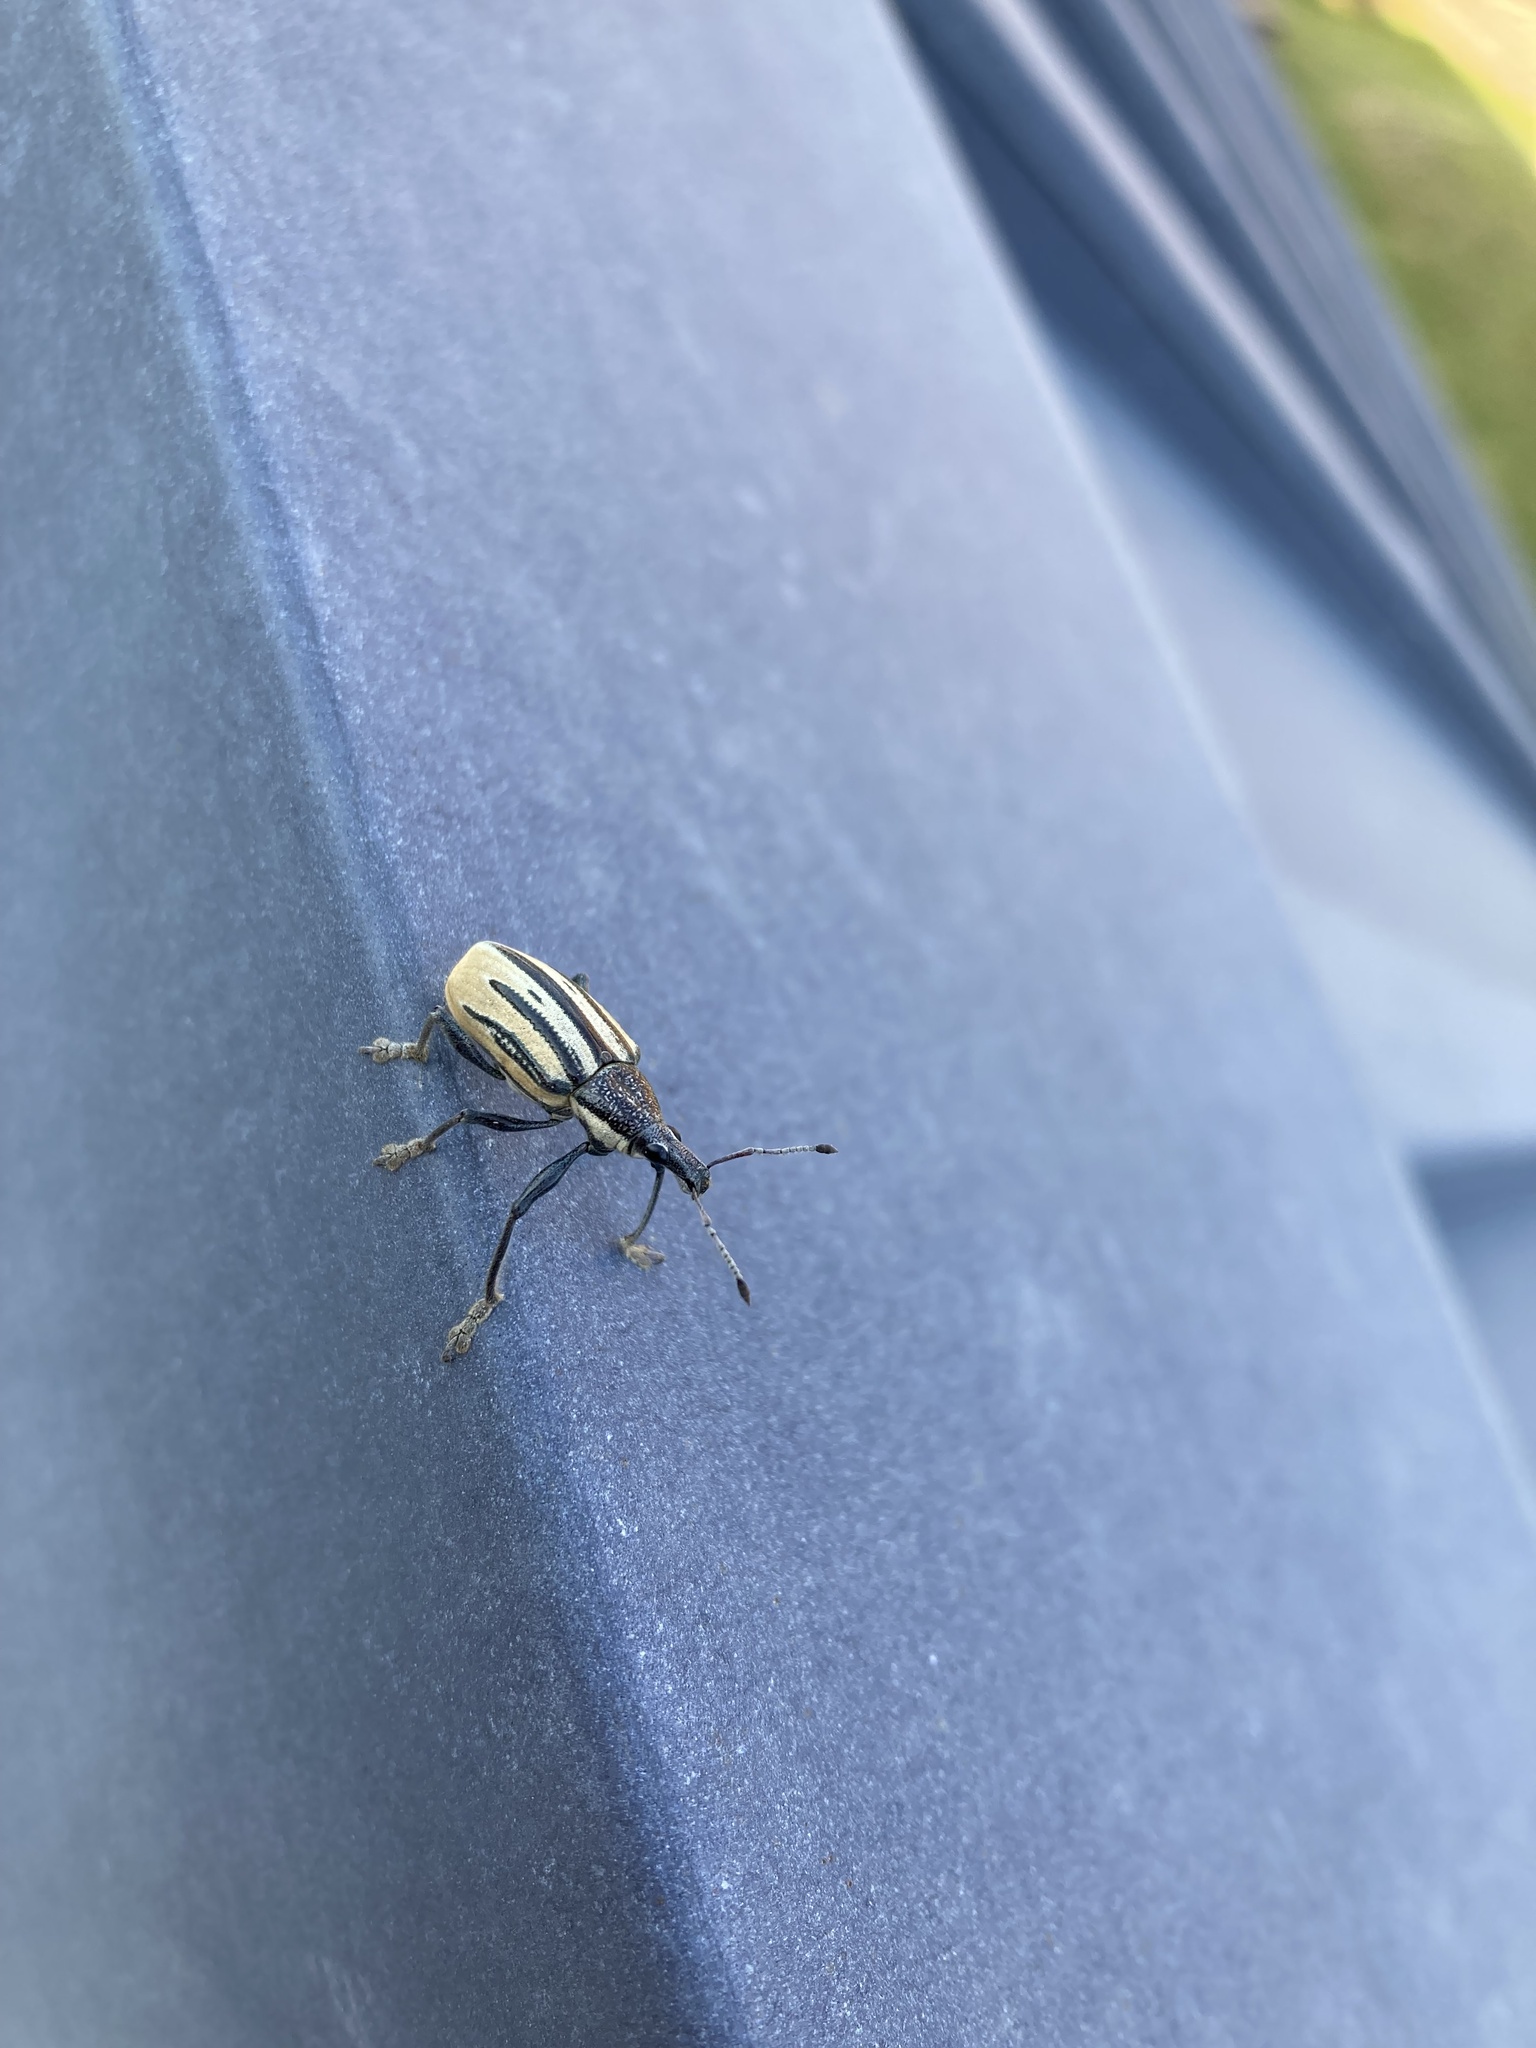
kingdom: Animalia
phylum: Arthropoda
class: Insecta
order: Coleoptera
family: Curculionidae
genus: Diaprepes
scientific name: Diaprepes abbreviatus
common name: Root weevil
